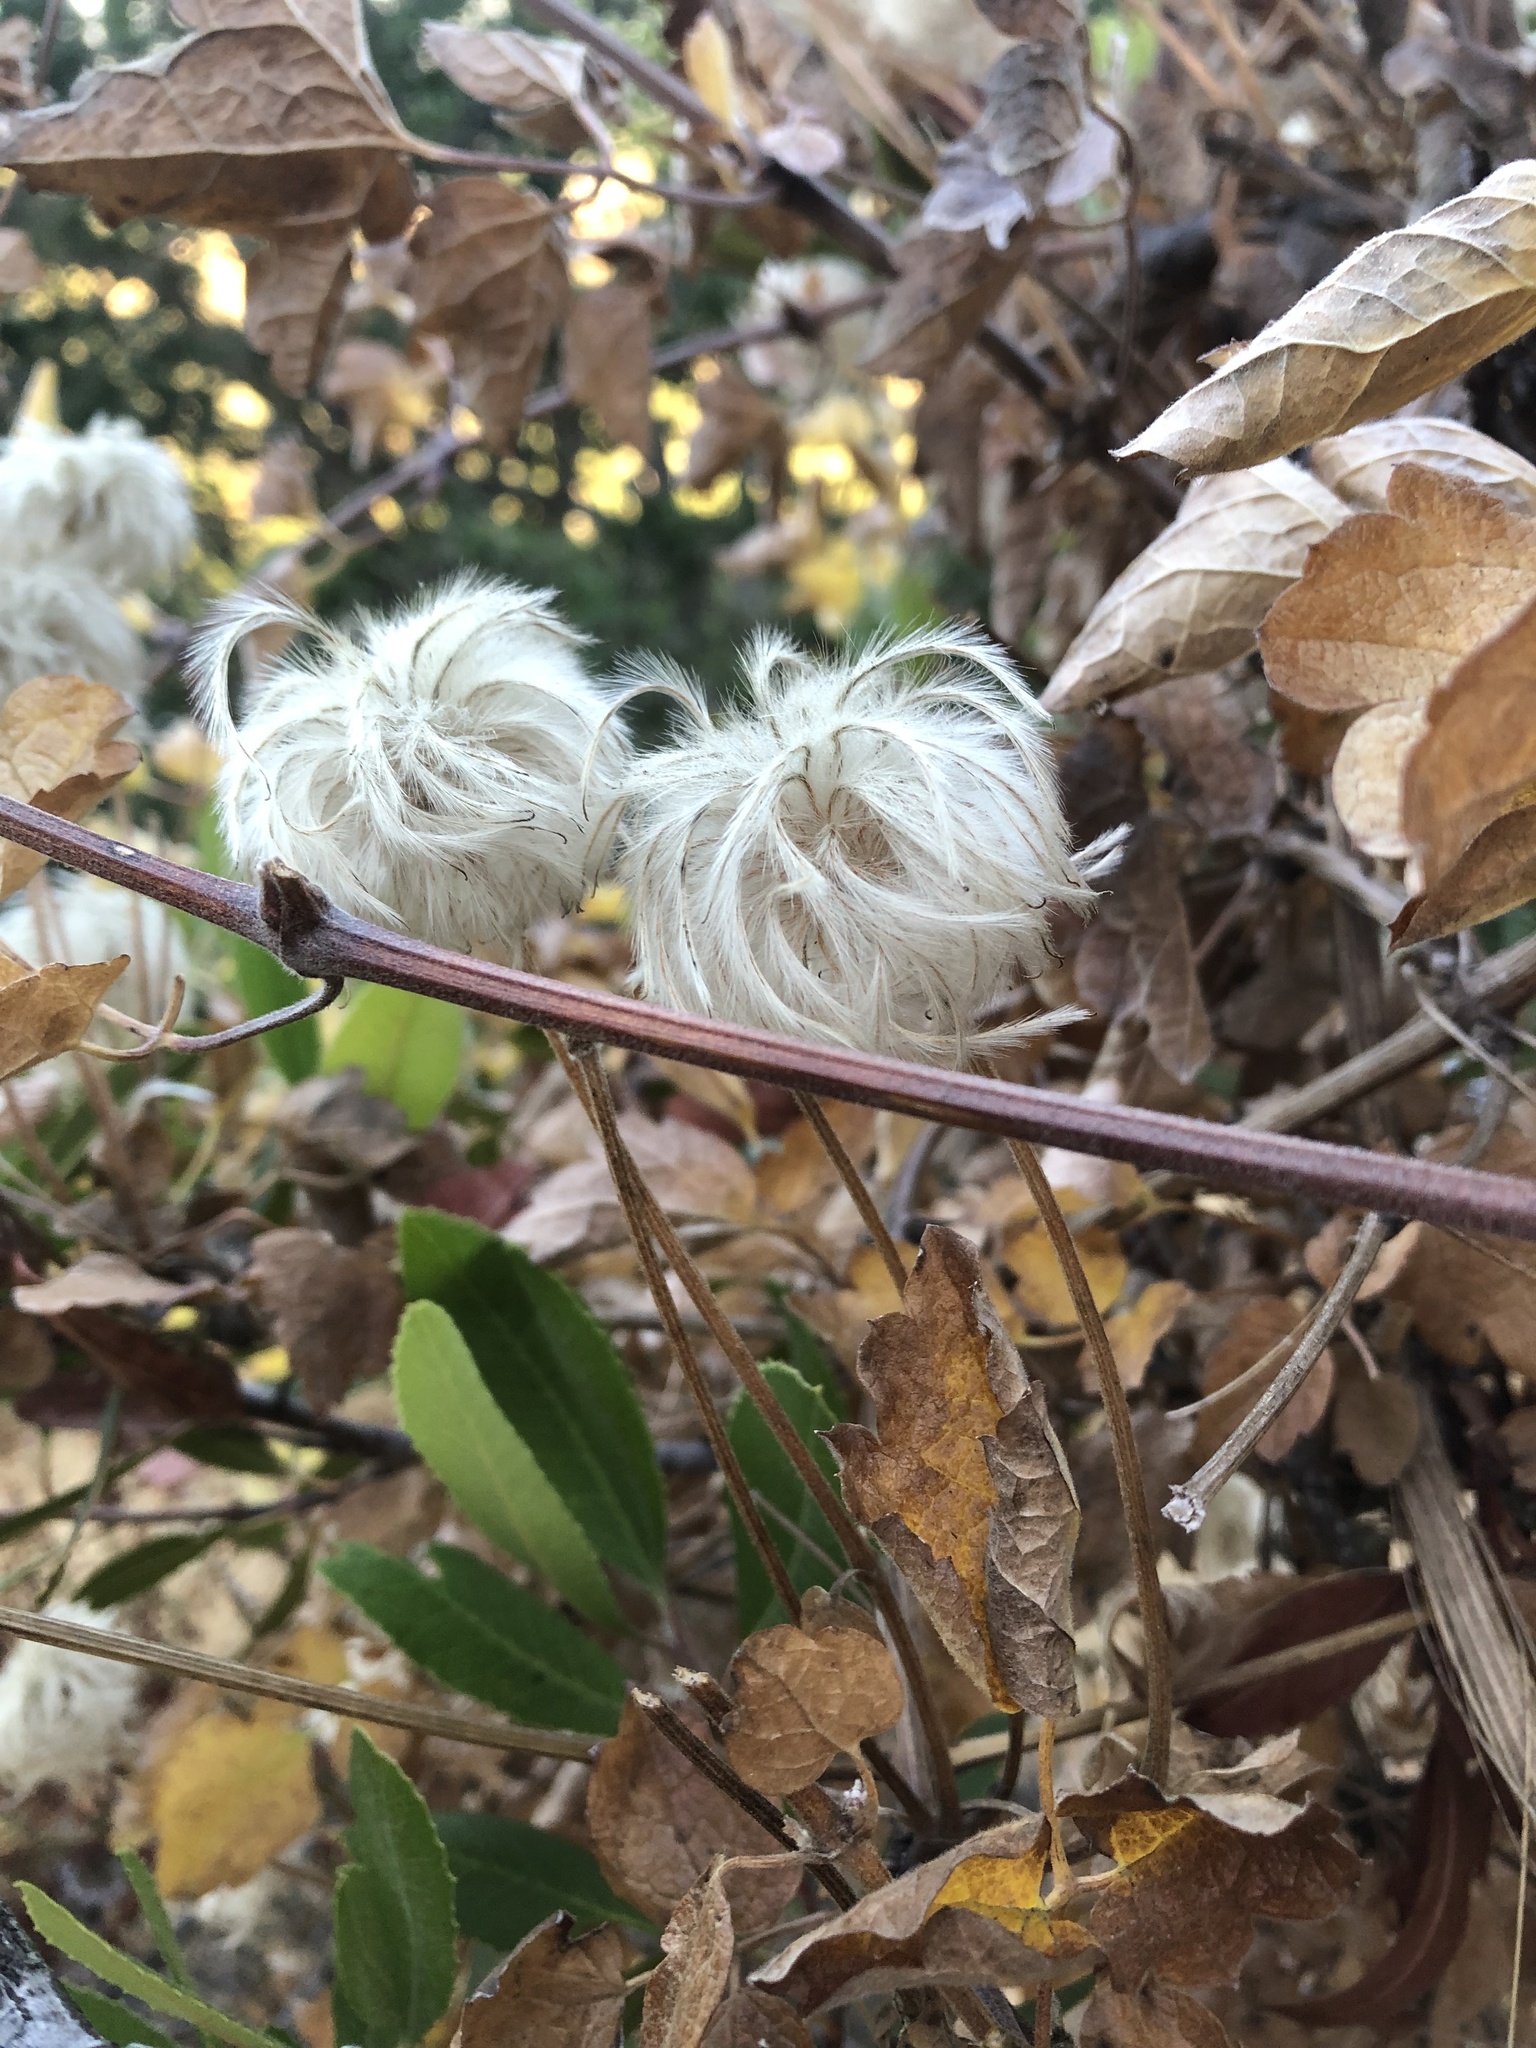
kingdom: Plantae
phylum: Tracheophyta
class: Magnoliopsida
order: Ranunculales
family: Ranunculaceae
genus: Clematis
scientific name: Clematis lasiantha
